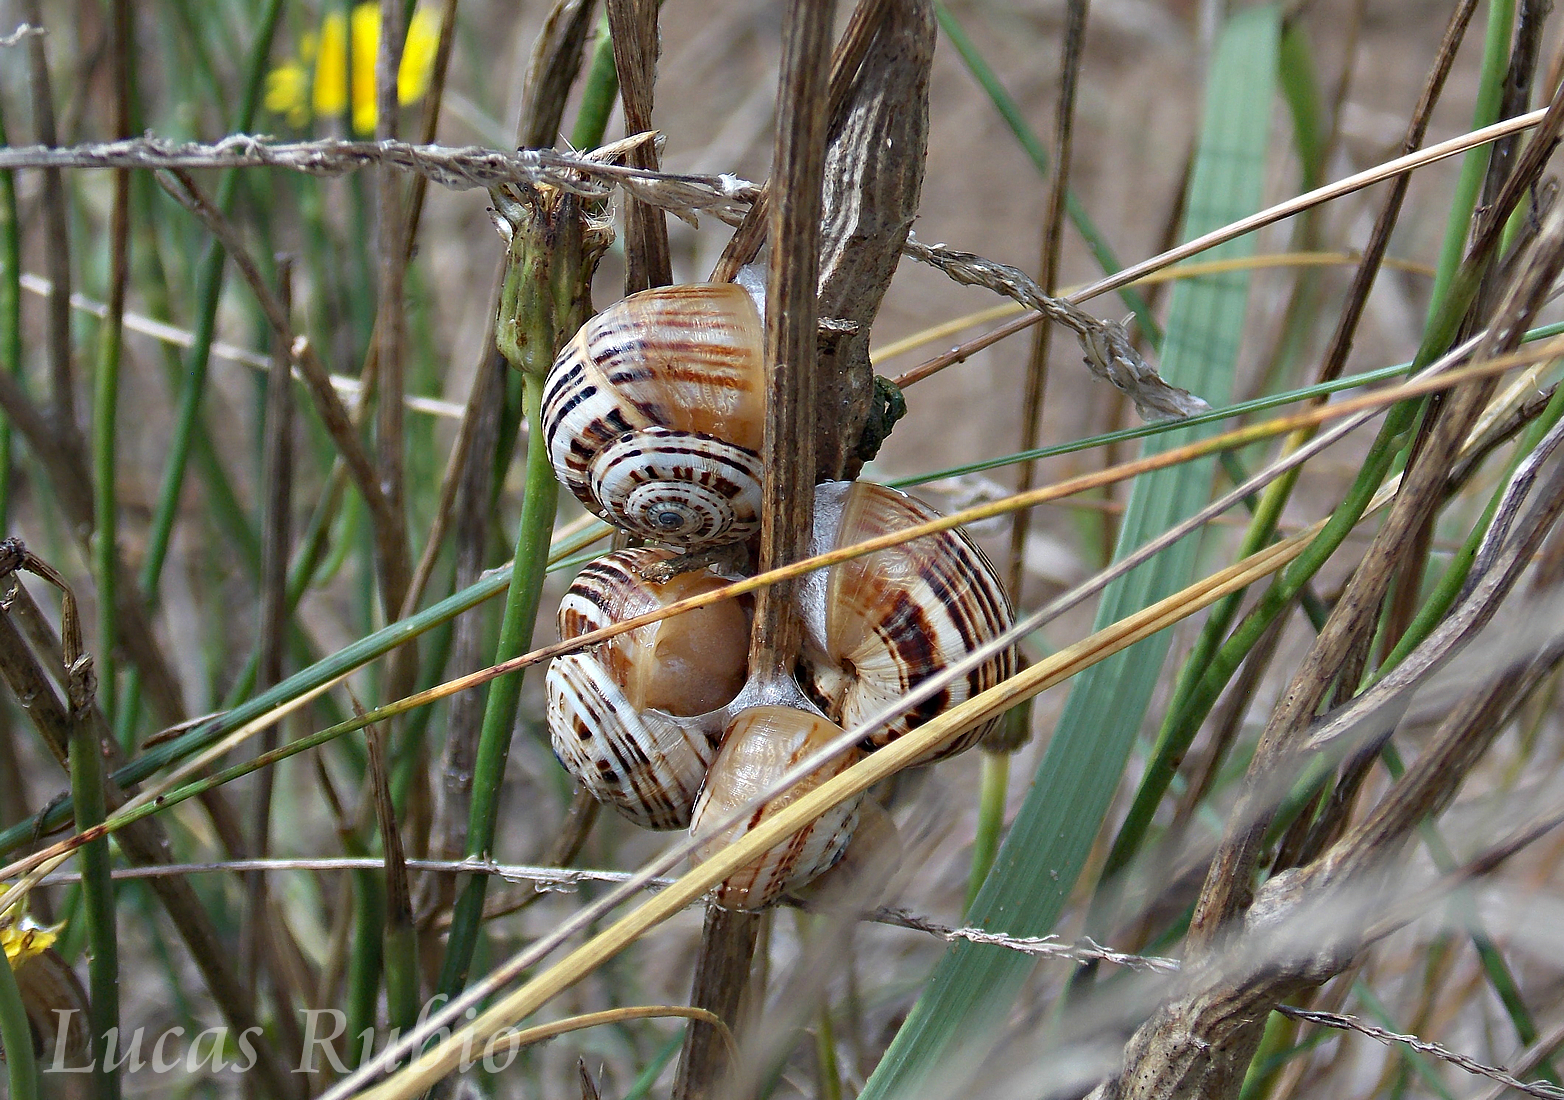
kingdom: Animalia
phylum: Mollusca
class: Gastropoda
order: Stylommatophora
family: Helicidae
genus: Theba
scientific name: Theba pisana
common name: White snail
